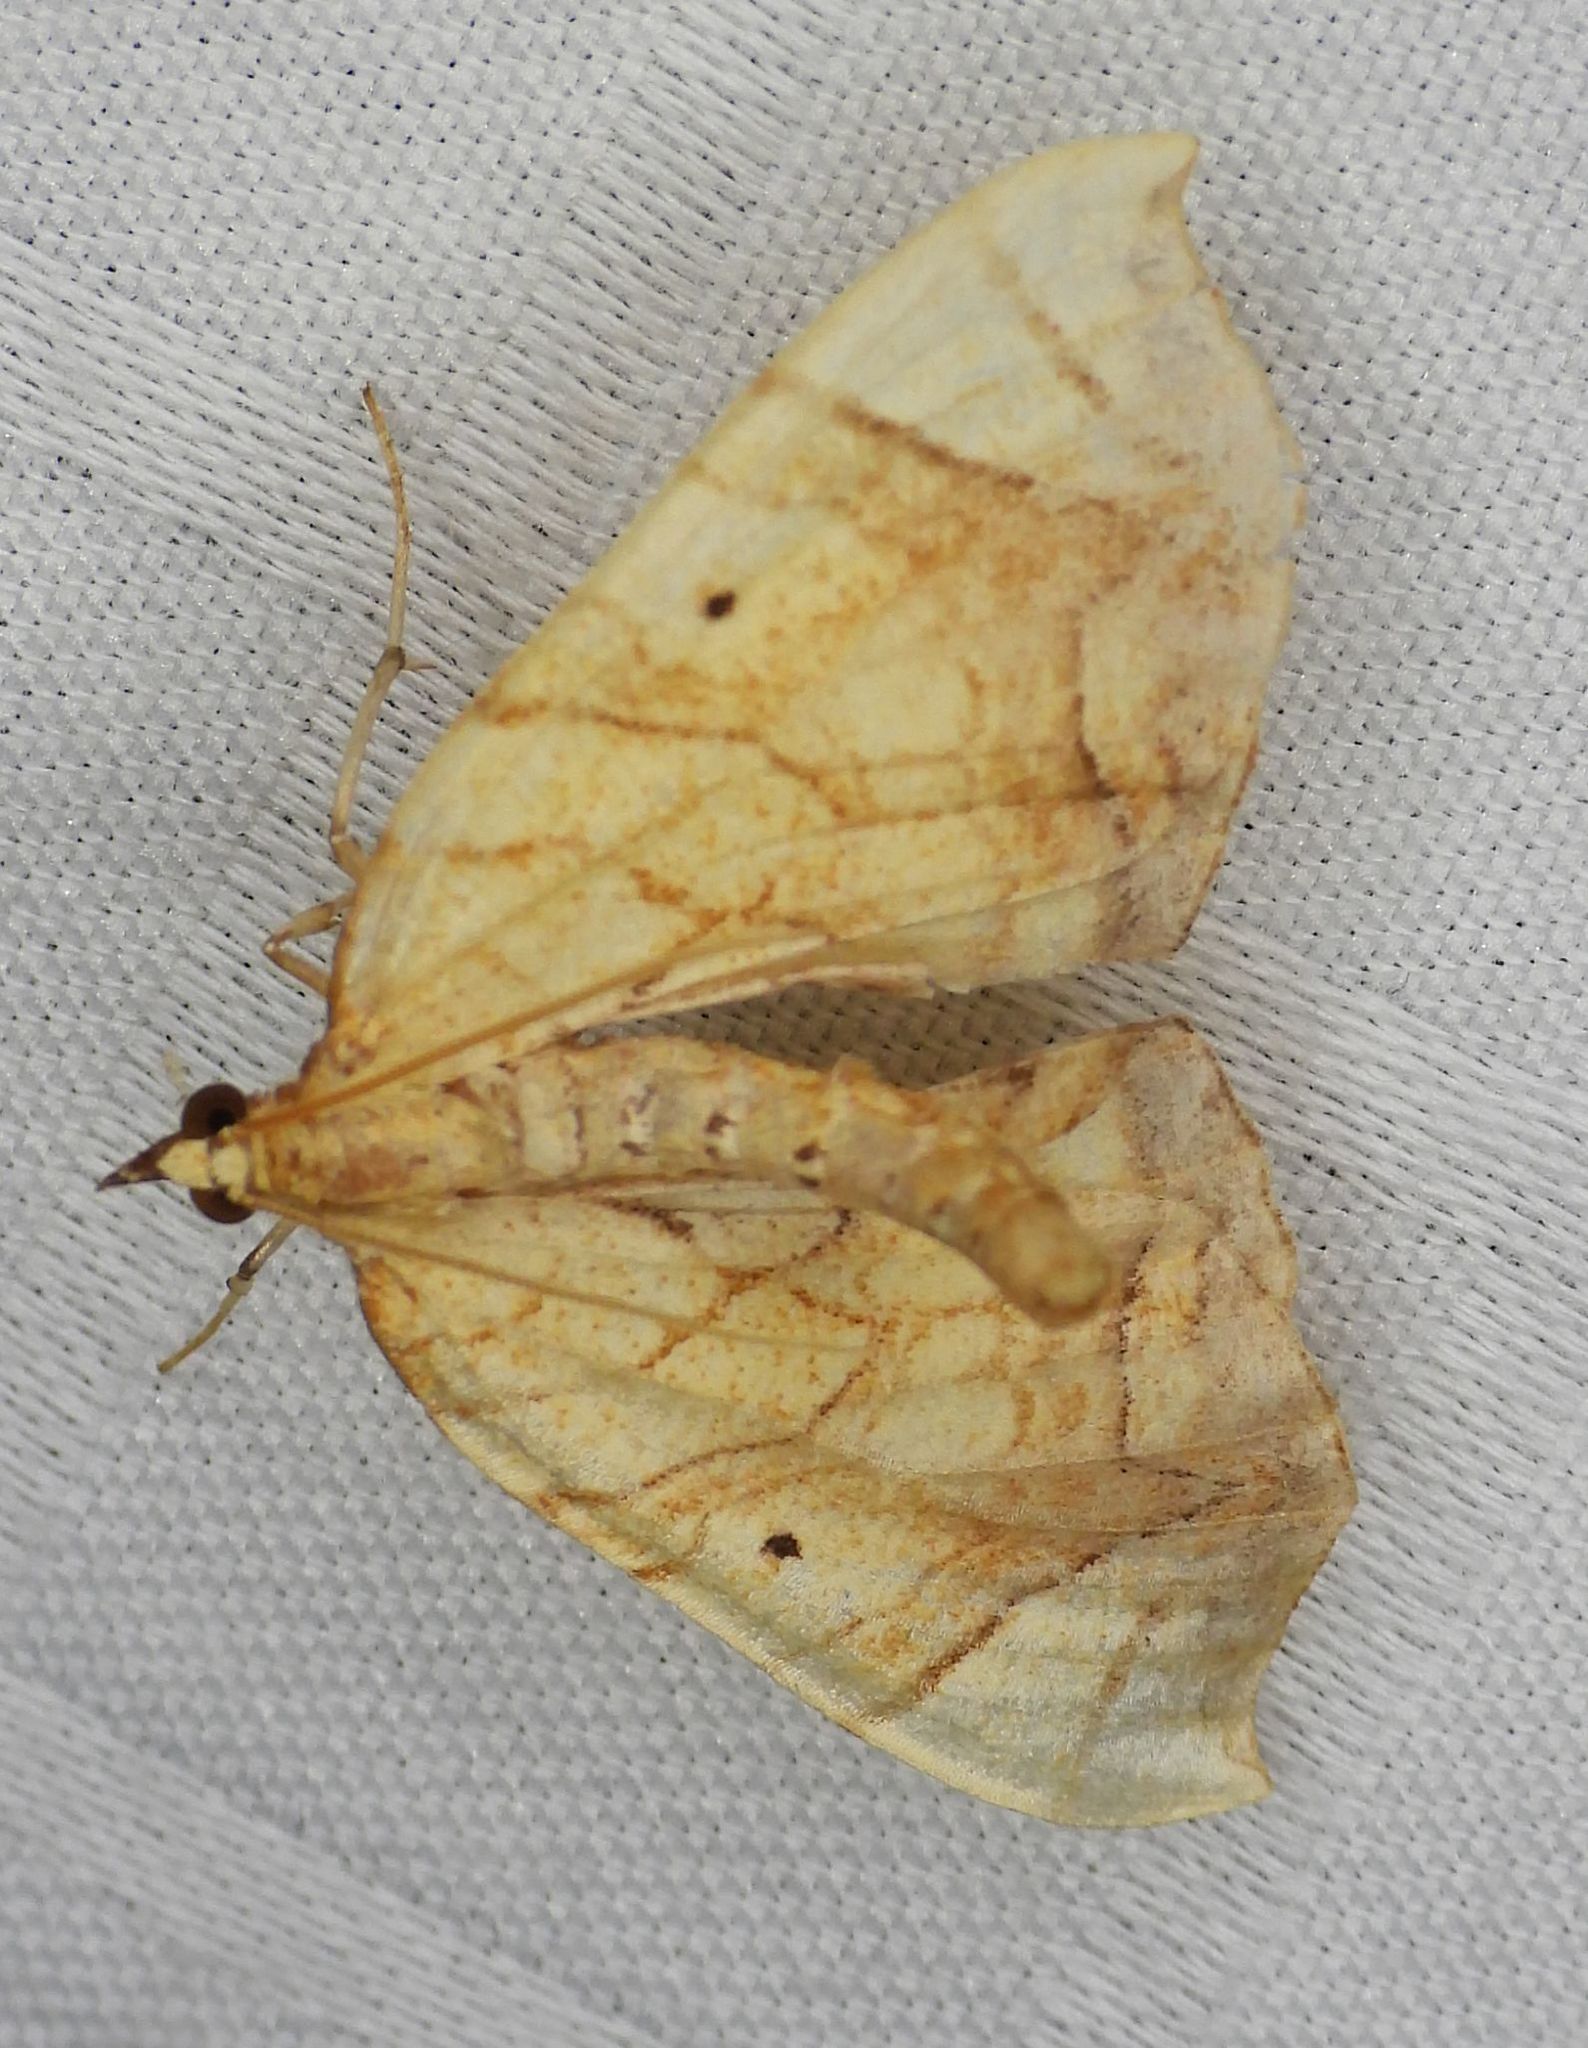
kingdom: Animalia
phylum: Arthropoda
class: Insecta
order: Lepidoptera
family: Geometridae
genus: Eulithis
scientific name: Eulithis
